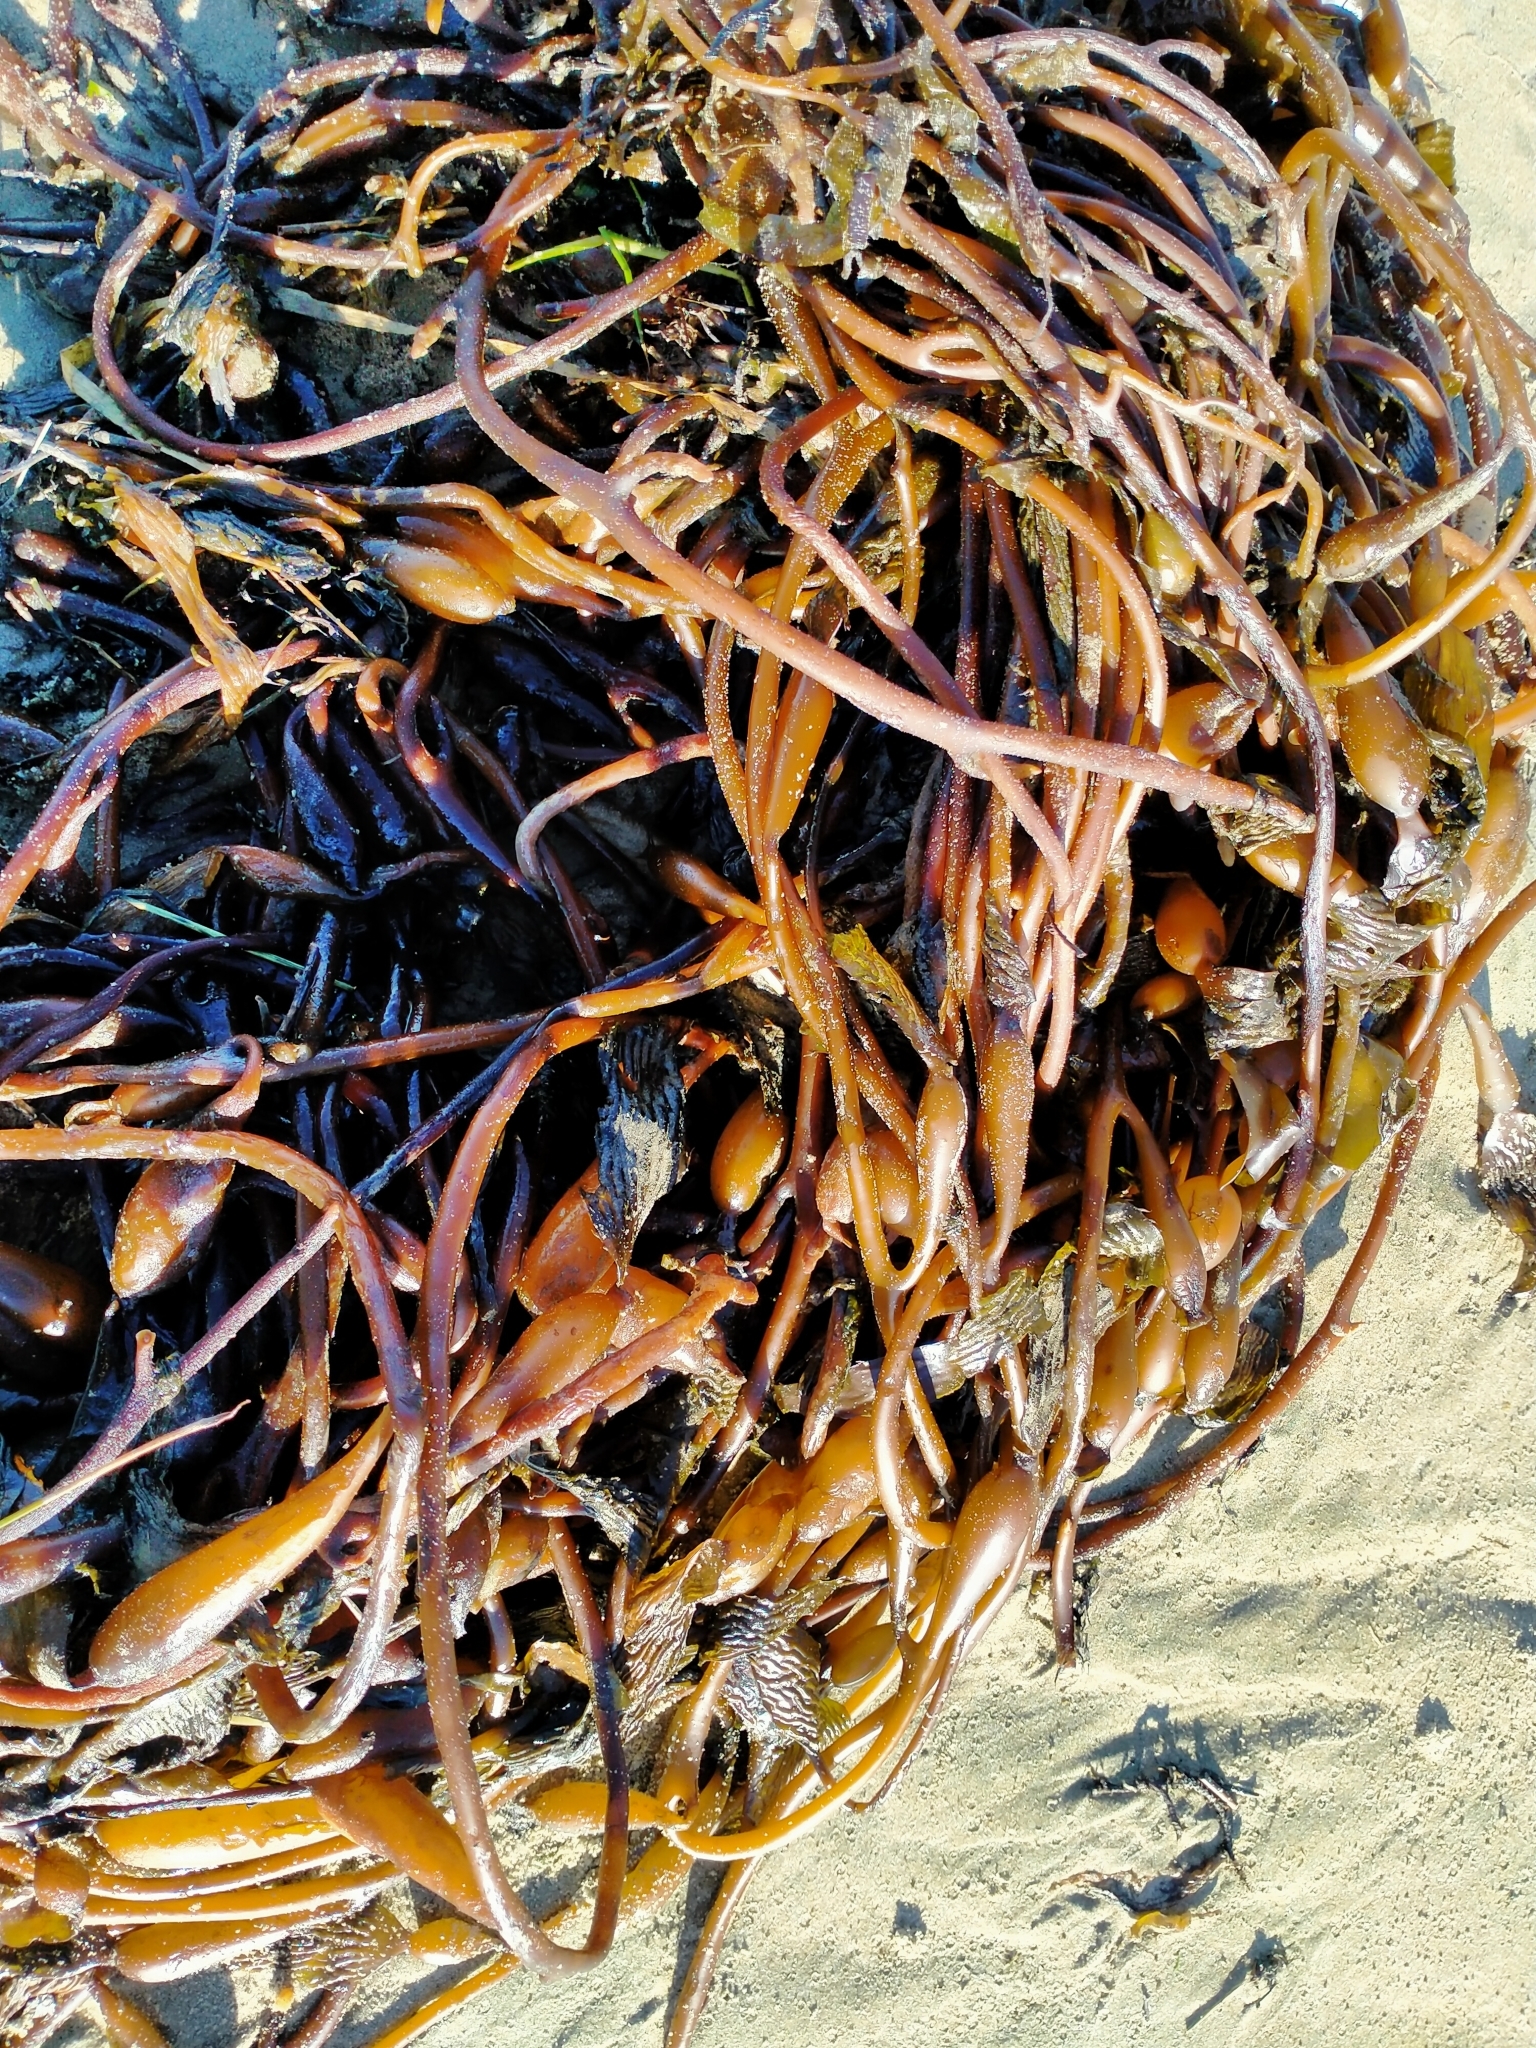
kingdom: Chromista
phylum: Ochrophyta
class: Phaeophyceae
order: Laminariales
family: Laminariaceae
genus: Macrocystis
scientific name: Macrocystis pyrifera
